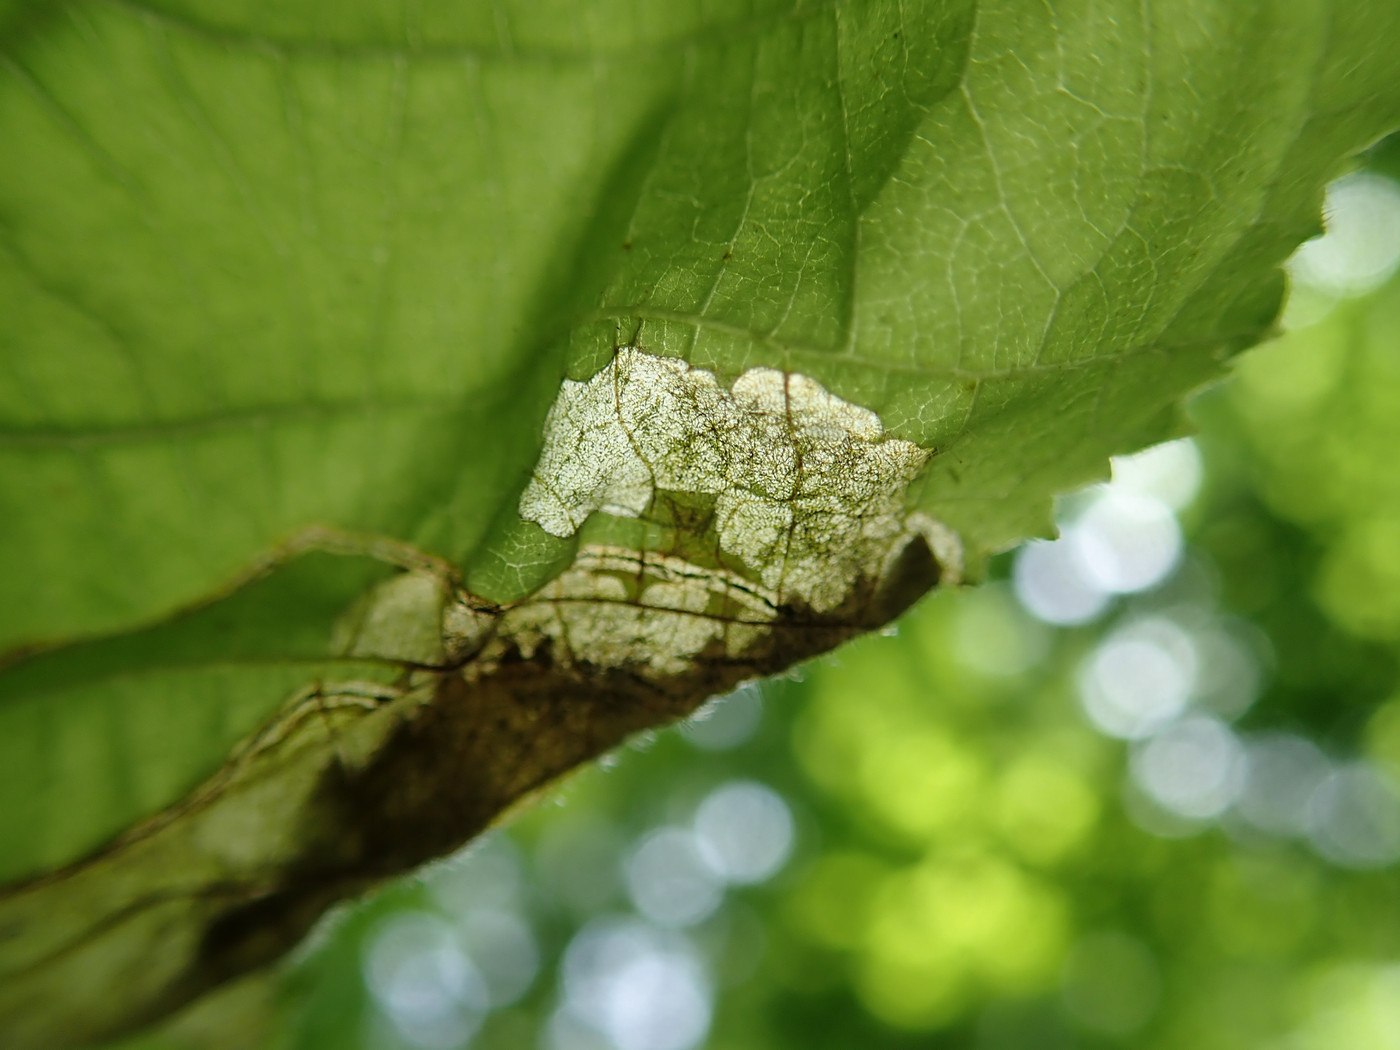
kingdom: Animalia
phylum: Arthropoda
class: Insecta
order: Coleoptera
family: Curculionidae
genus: Orchestes
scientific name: Orchestes mixtus
